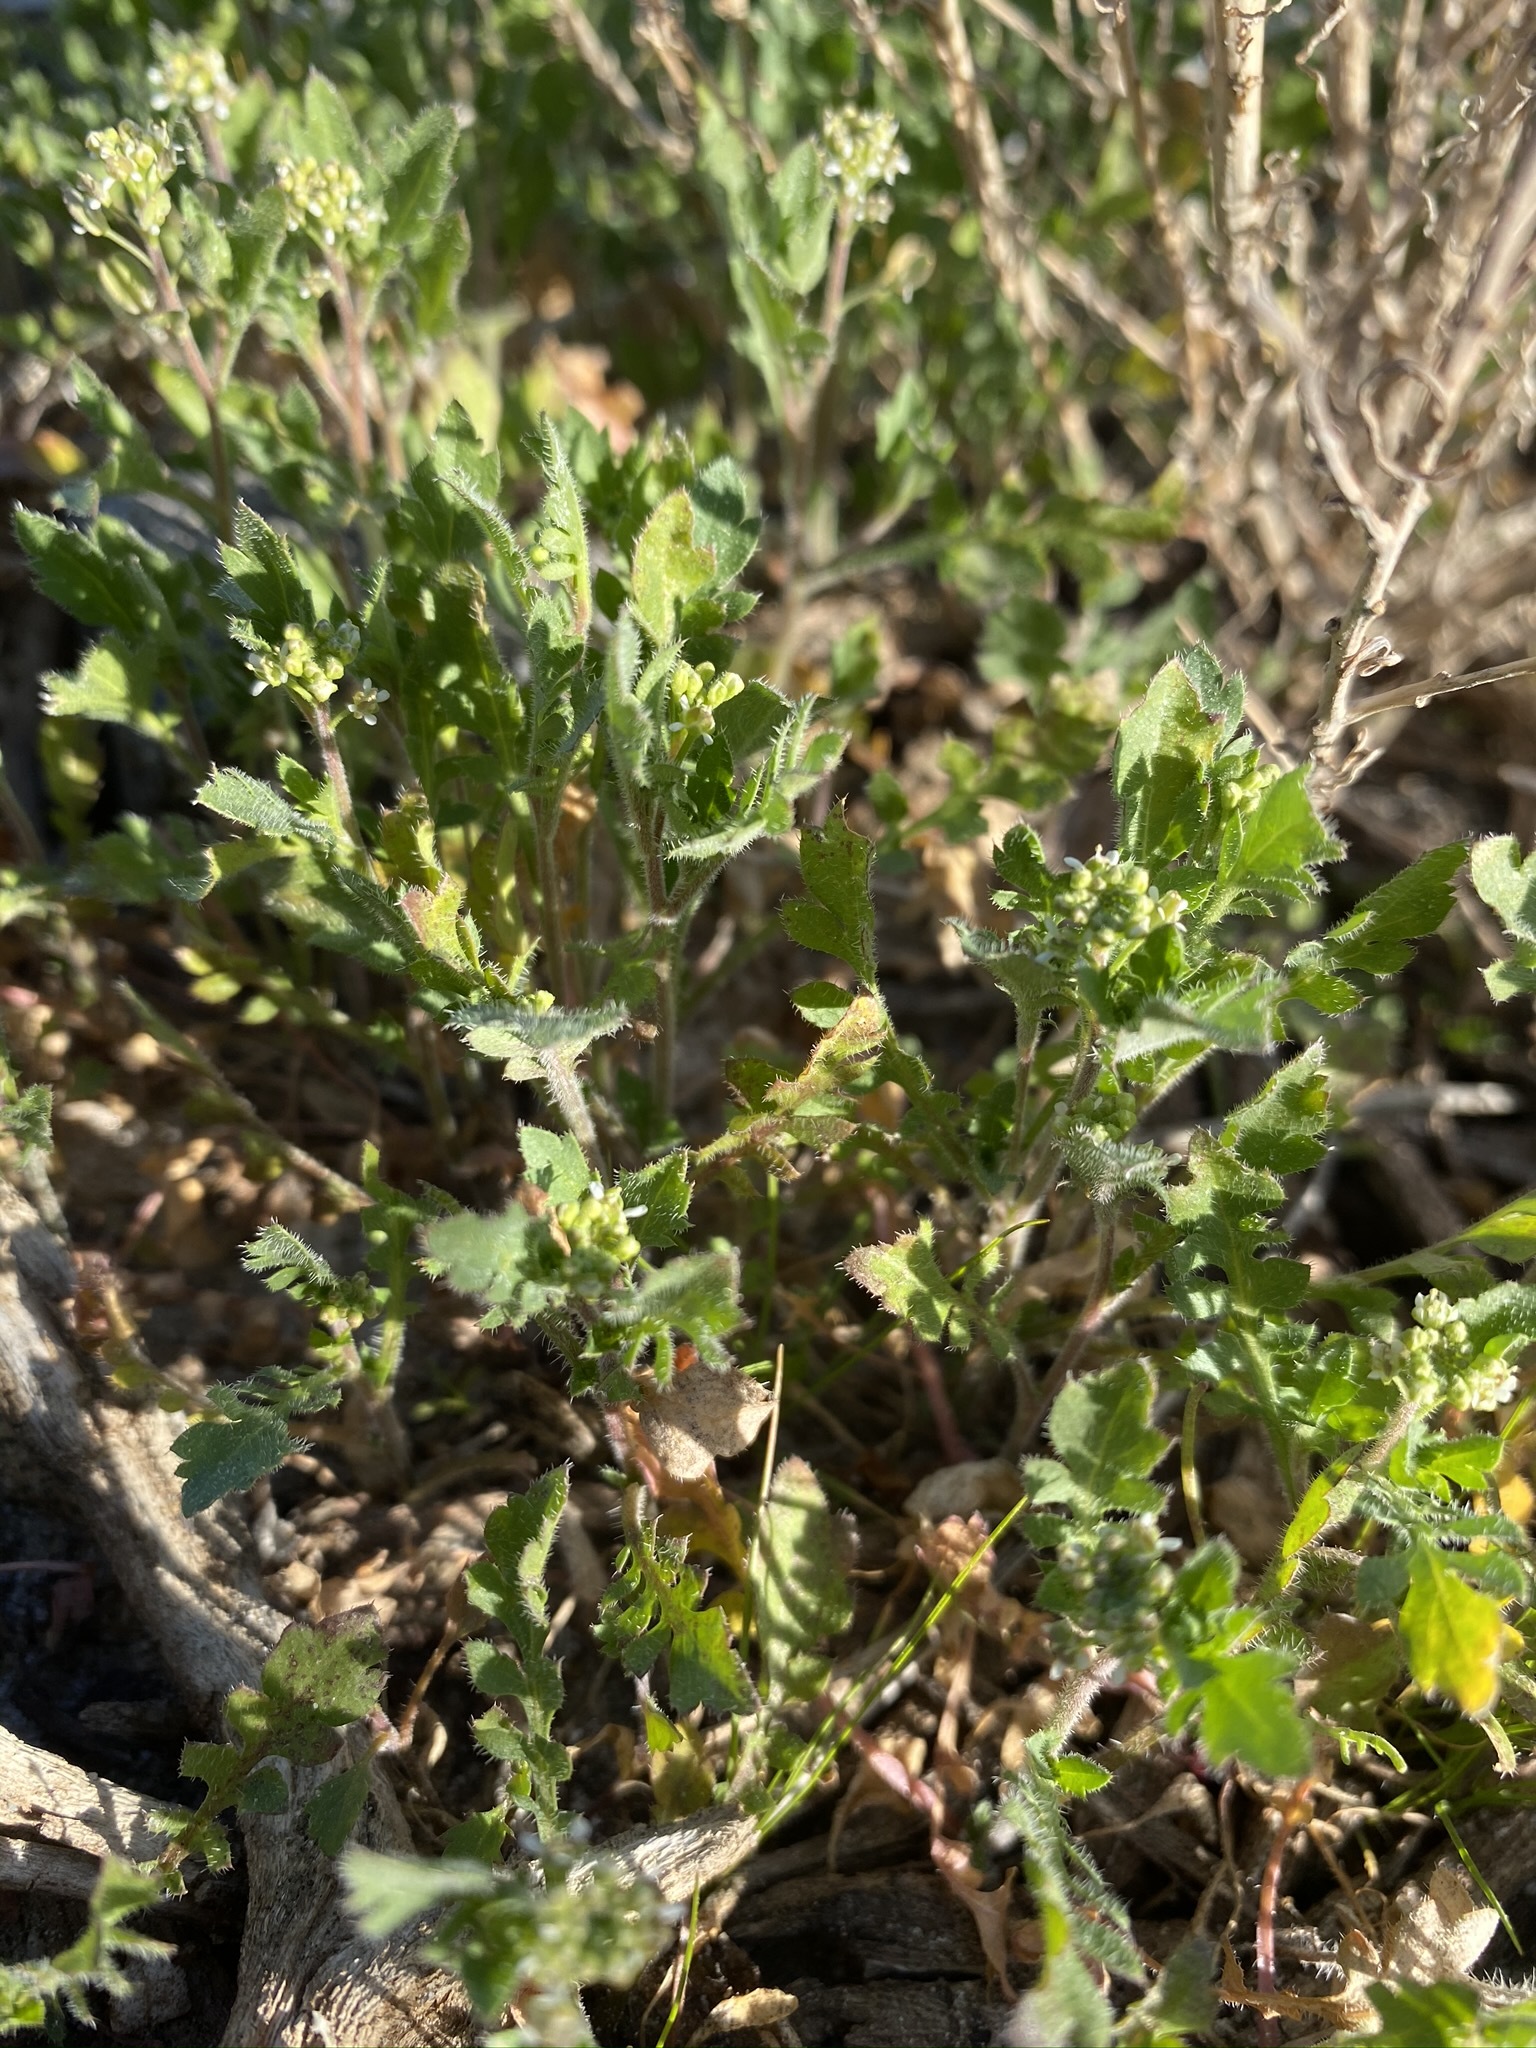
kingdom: Plantae
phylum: Tracheophyta
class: Magnoliopsida
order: Brassicales
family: Brassicaceae
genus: Lepidium
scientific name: Lepidium lasiocarpum
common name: Hairy-pod pepperwort
